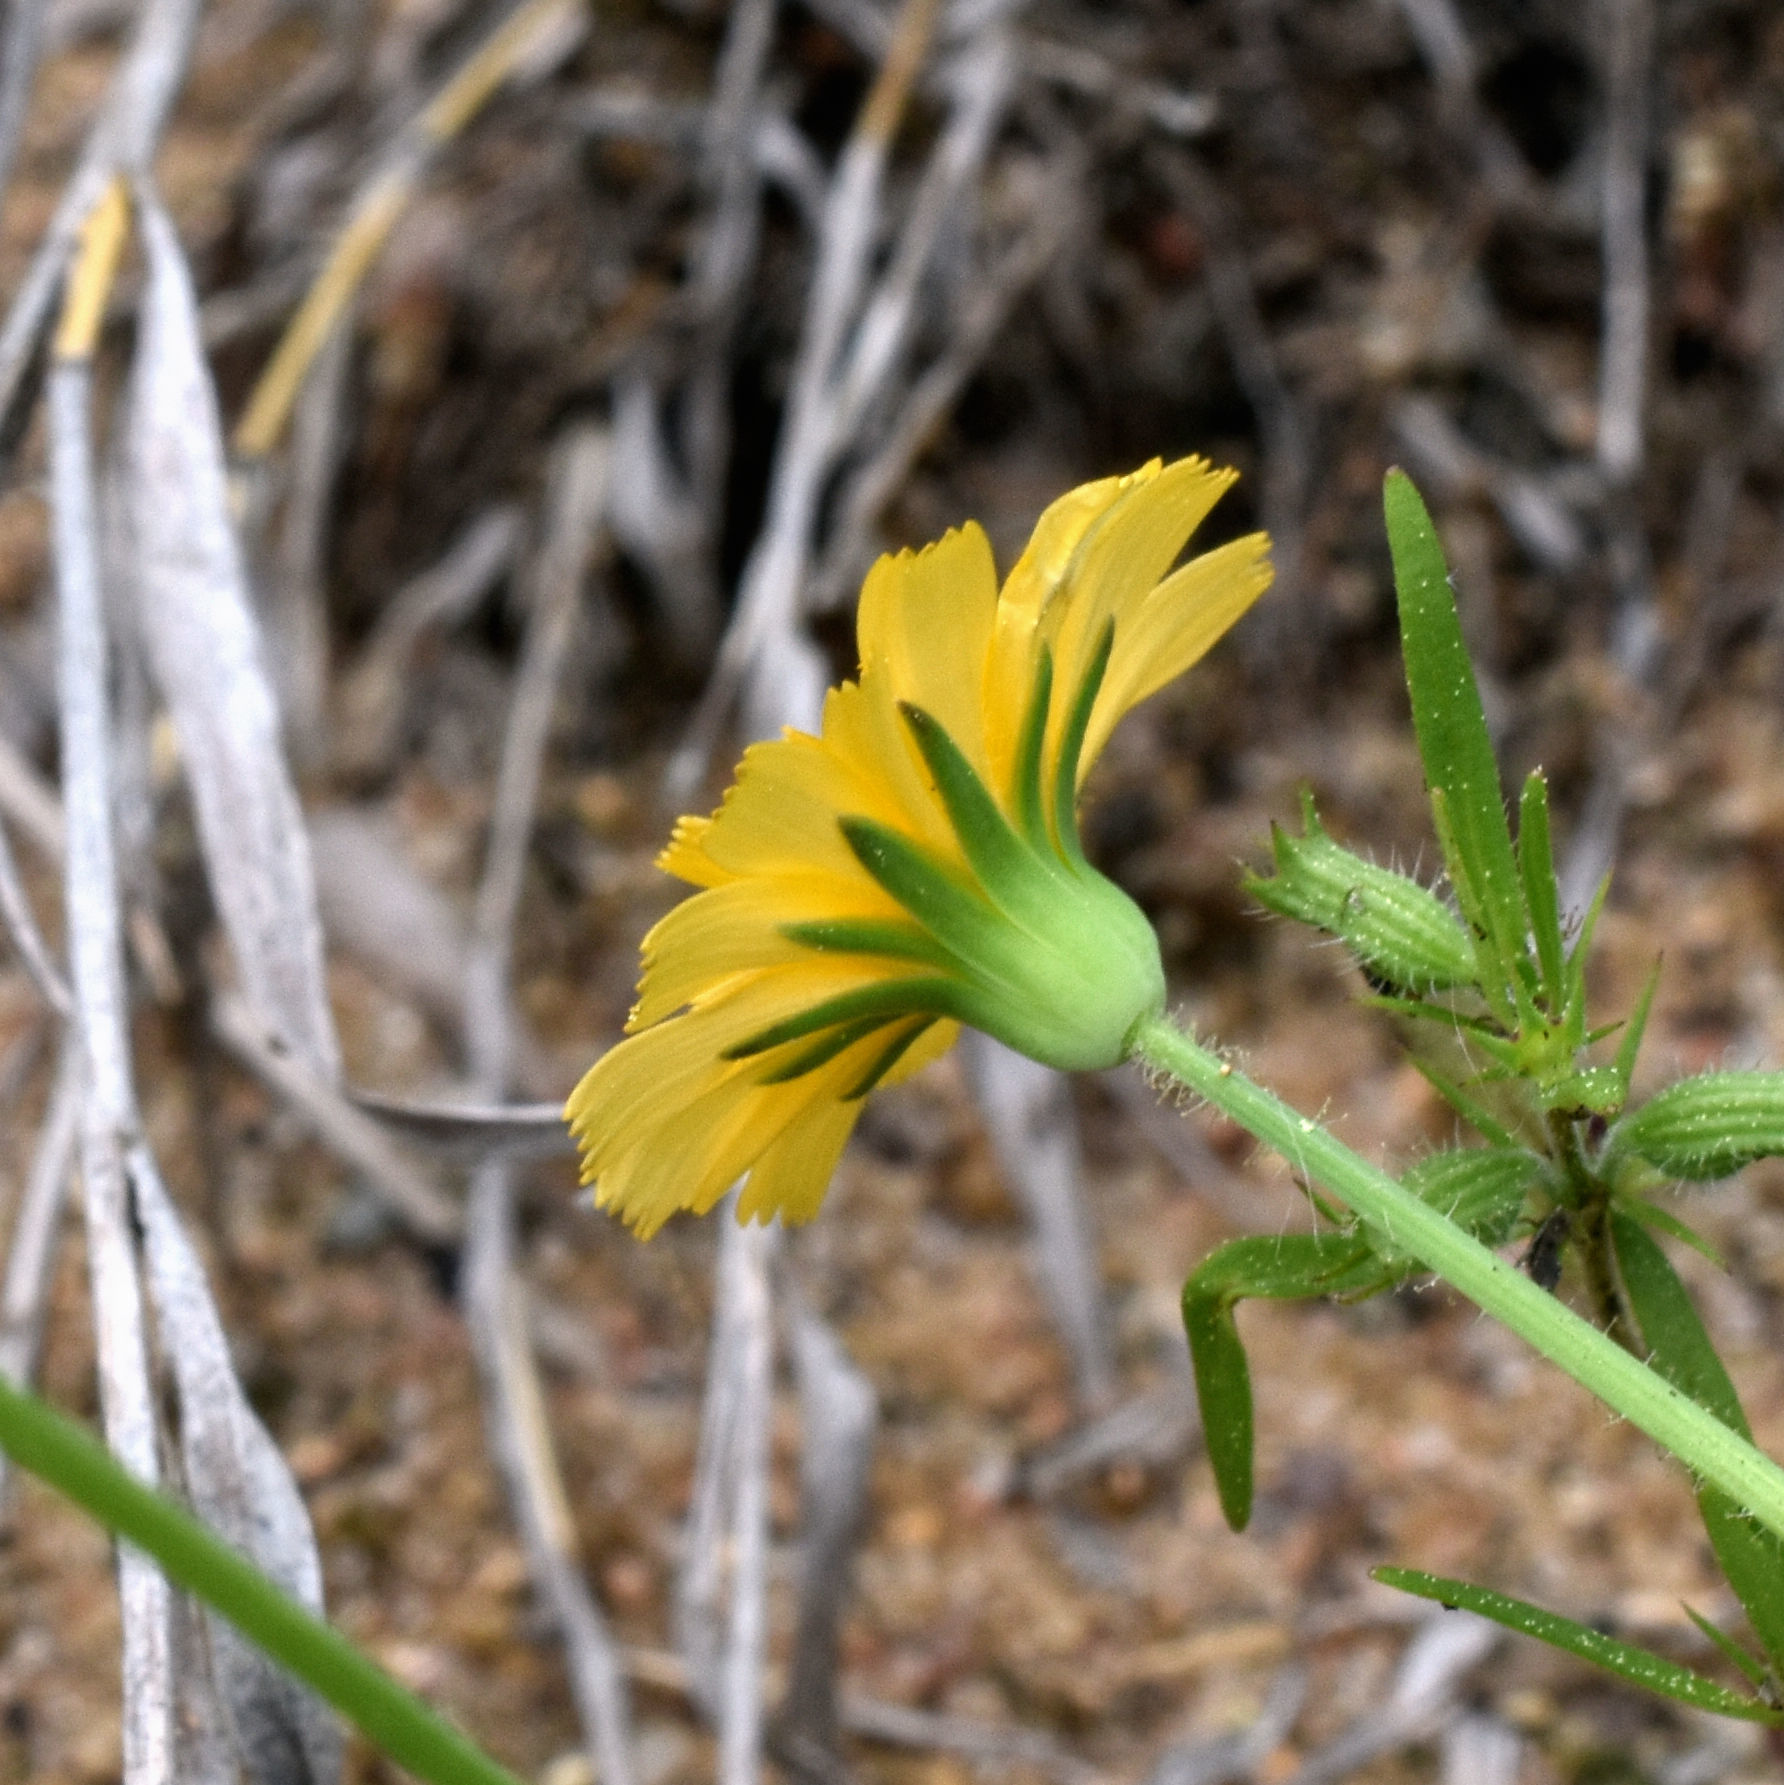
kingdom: Plantae
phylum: Tracheophyta
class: Magnoliopsida
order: Asterales
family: Asteraceae
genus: Krigia
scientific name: Krigia virginica
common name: Virginia dwarf-dandelion
